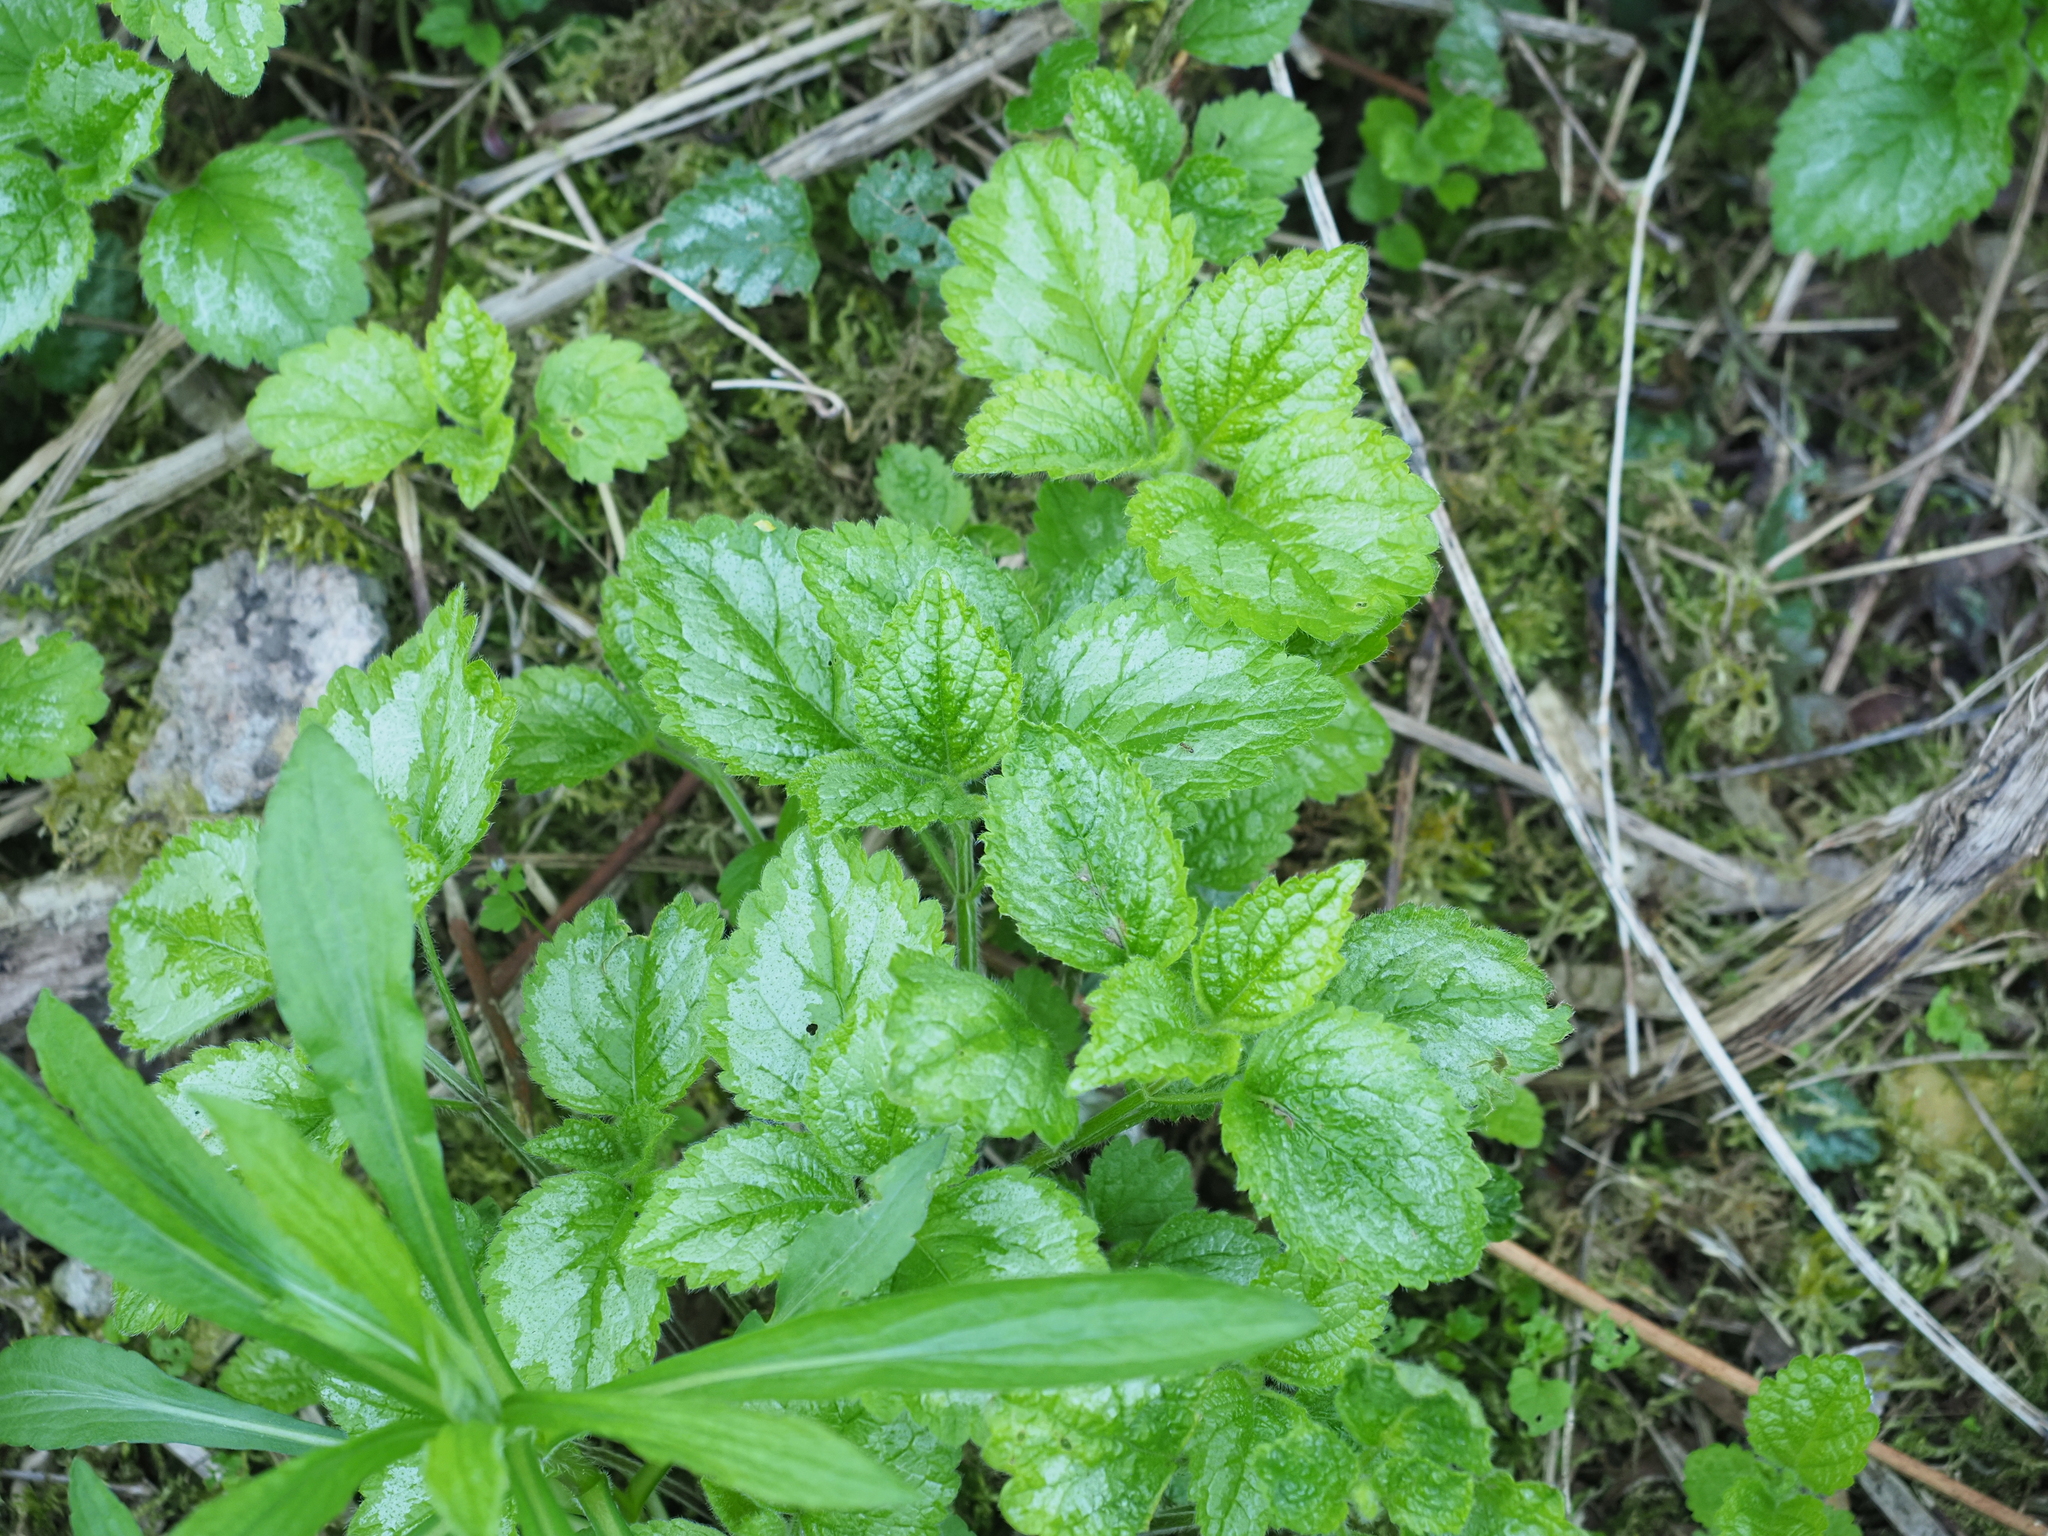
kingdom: Plantae
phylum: Tracheophyta
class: Magnoliopsida
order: Lamiales
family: Lamiaceae
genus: Lamium
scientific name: Lamium galeobdolon
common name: Yellow archangel
